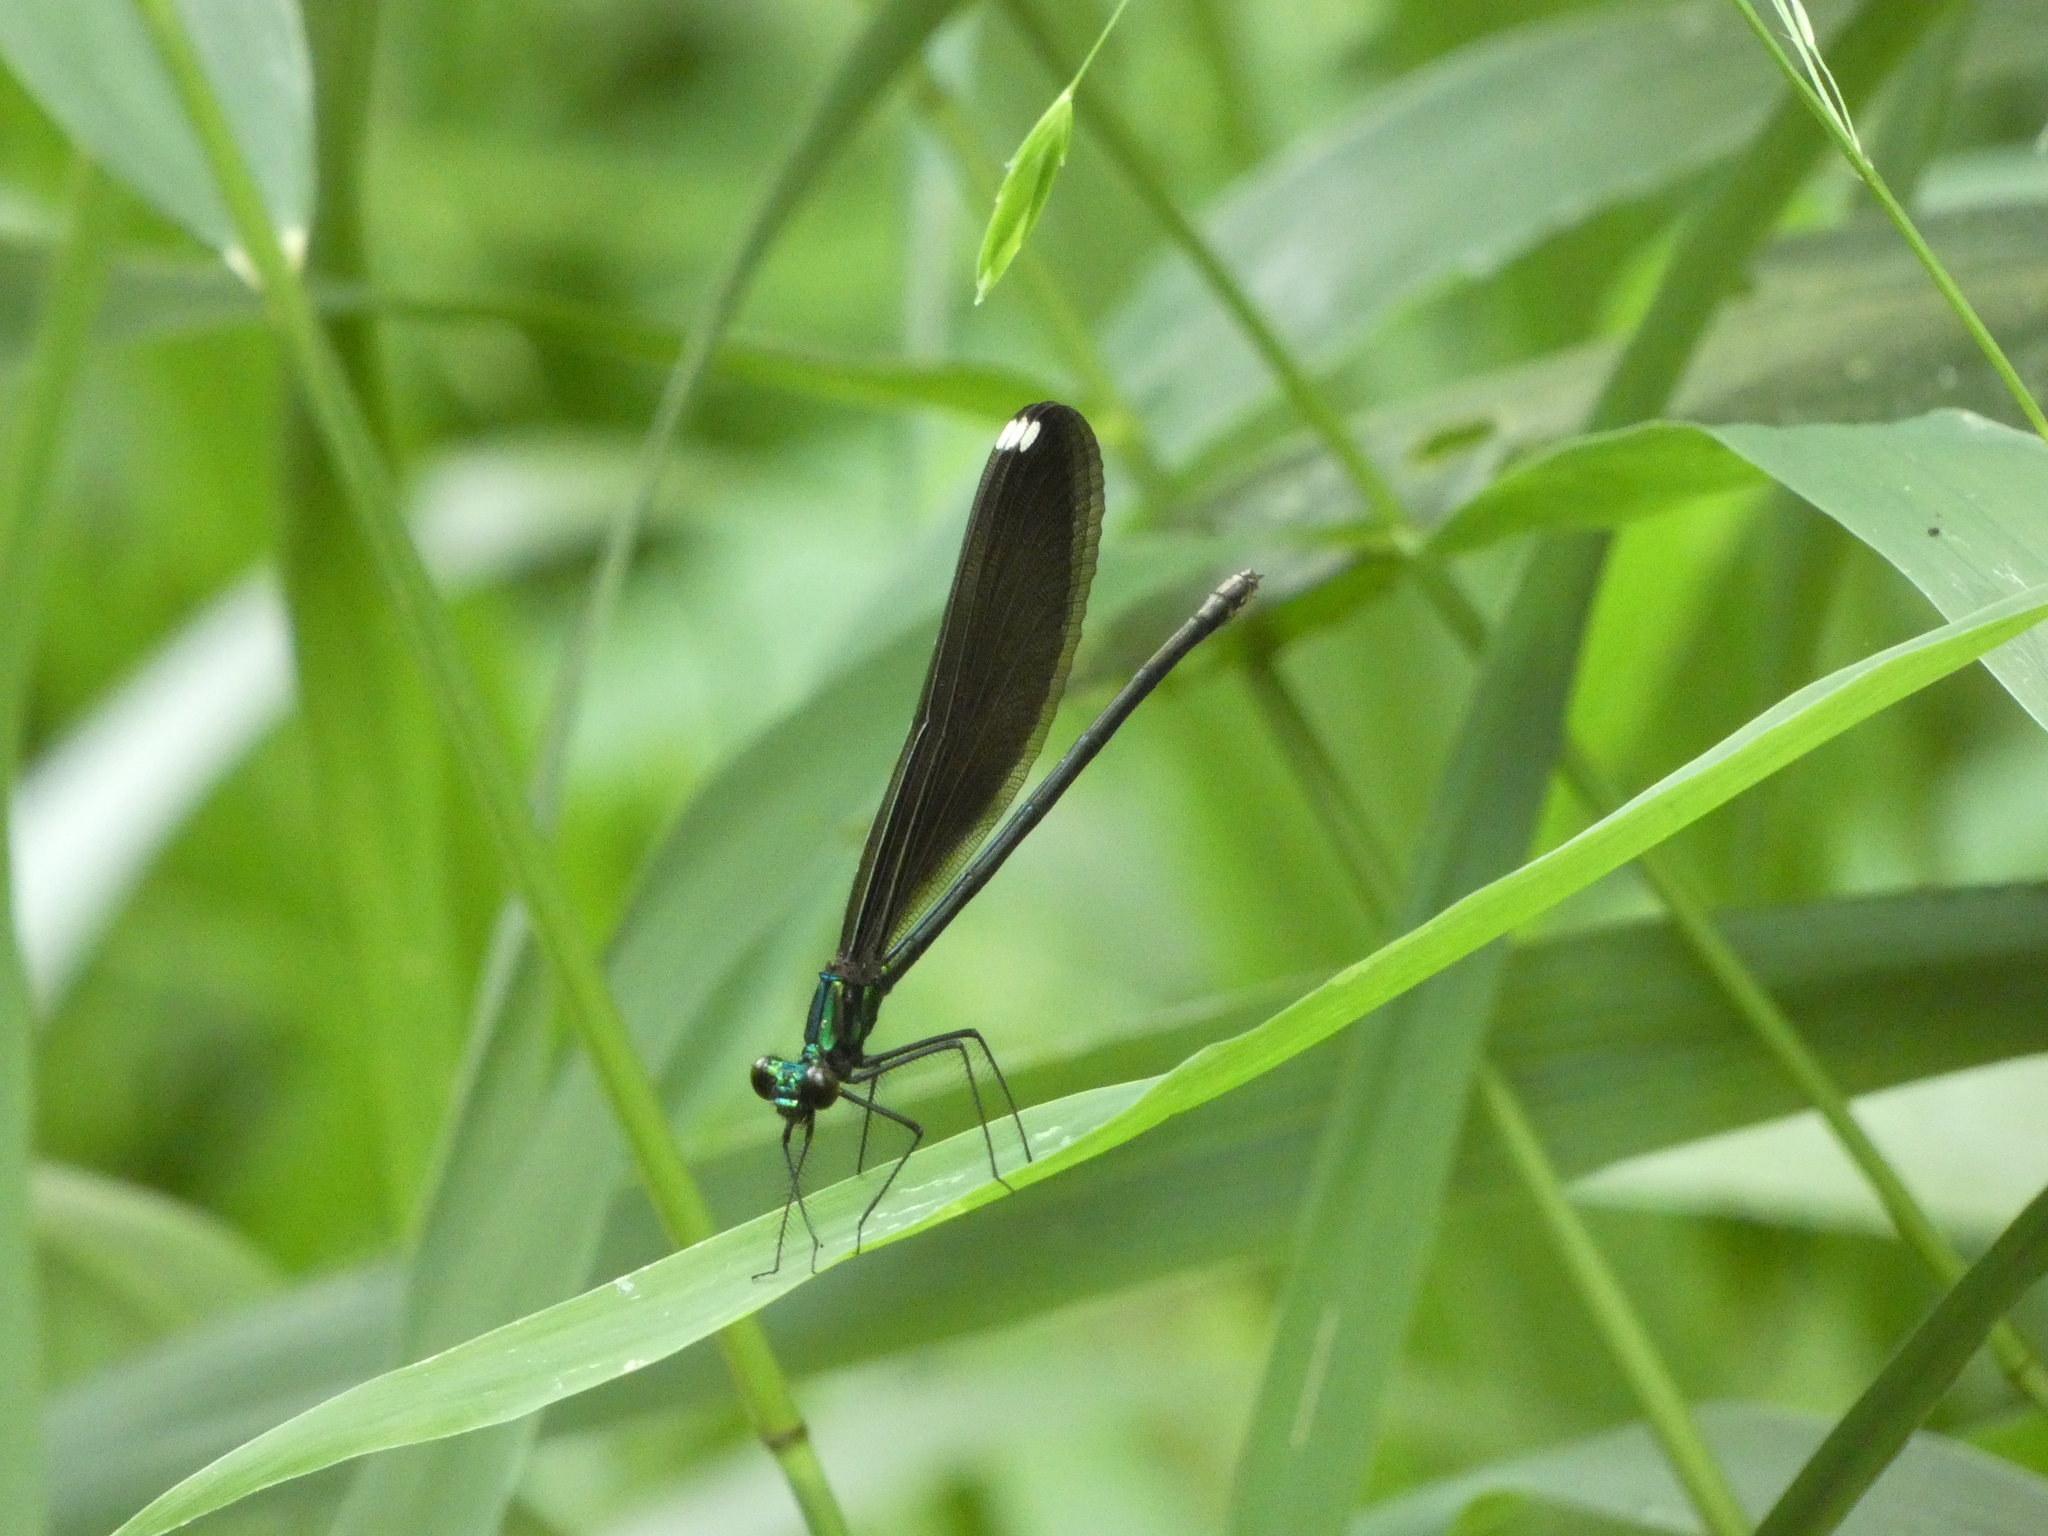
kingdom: Animalia
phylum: Arthropoda
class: Insecta
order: Odonata
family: Calopterygidae
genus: Calopteryx
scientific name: Calopteryx maculata
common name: Ebony jewelwing
